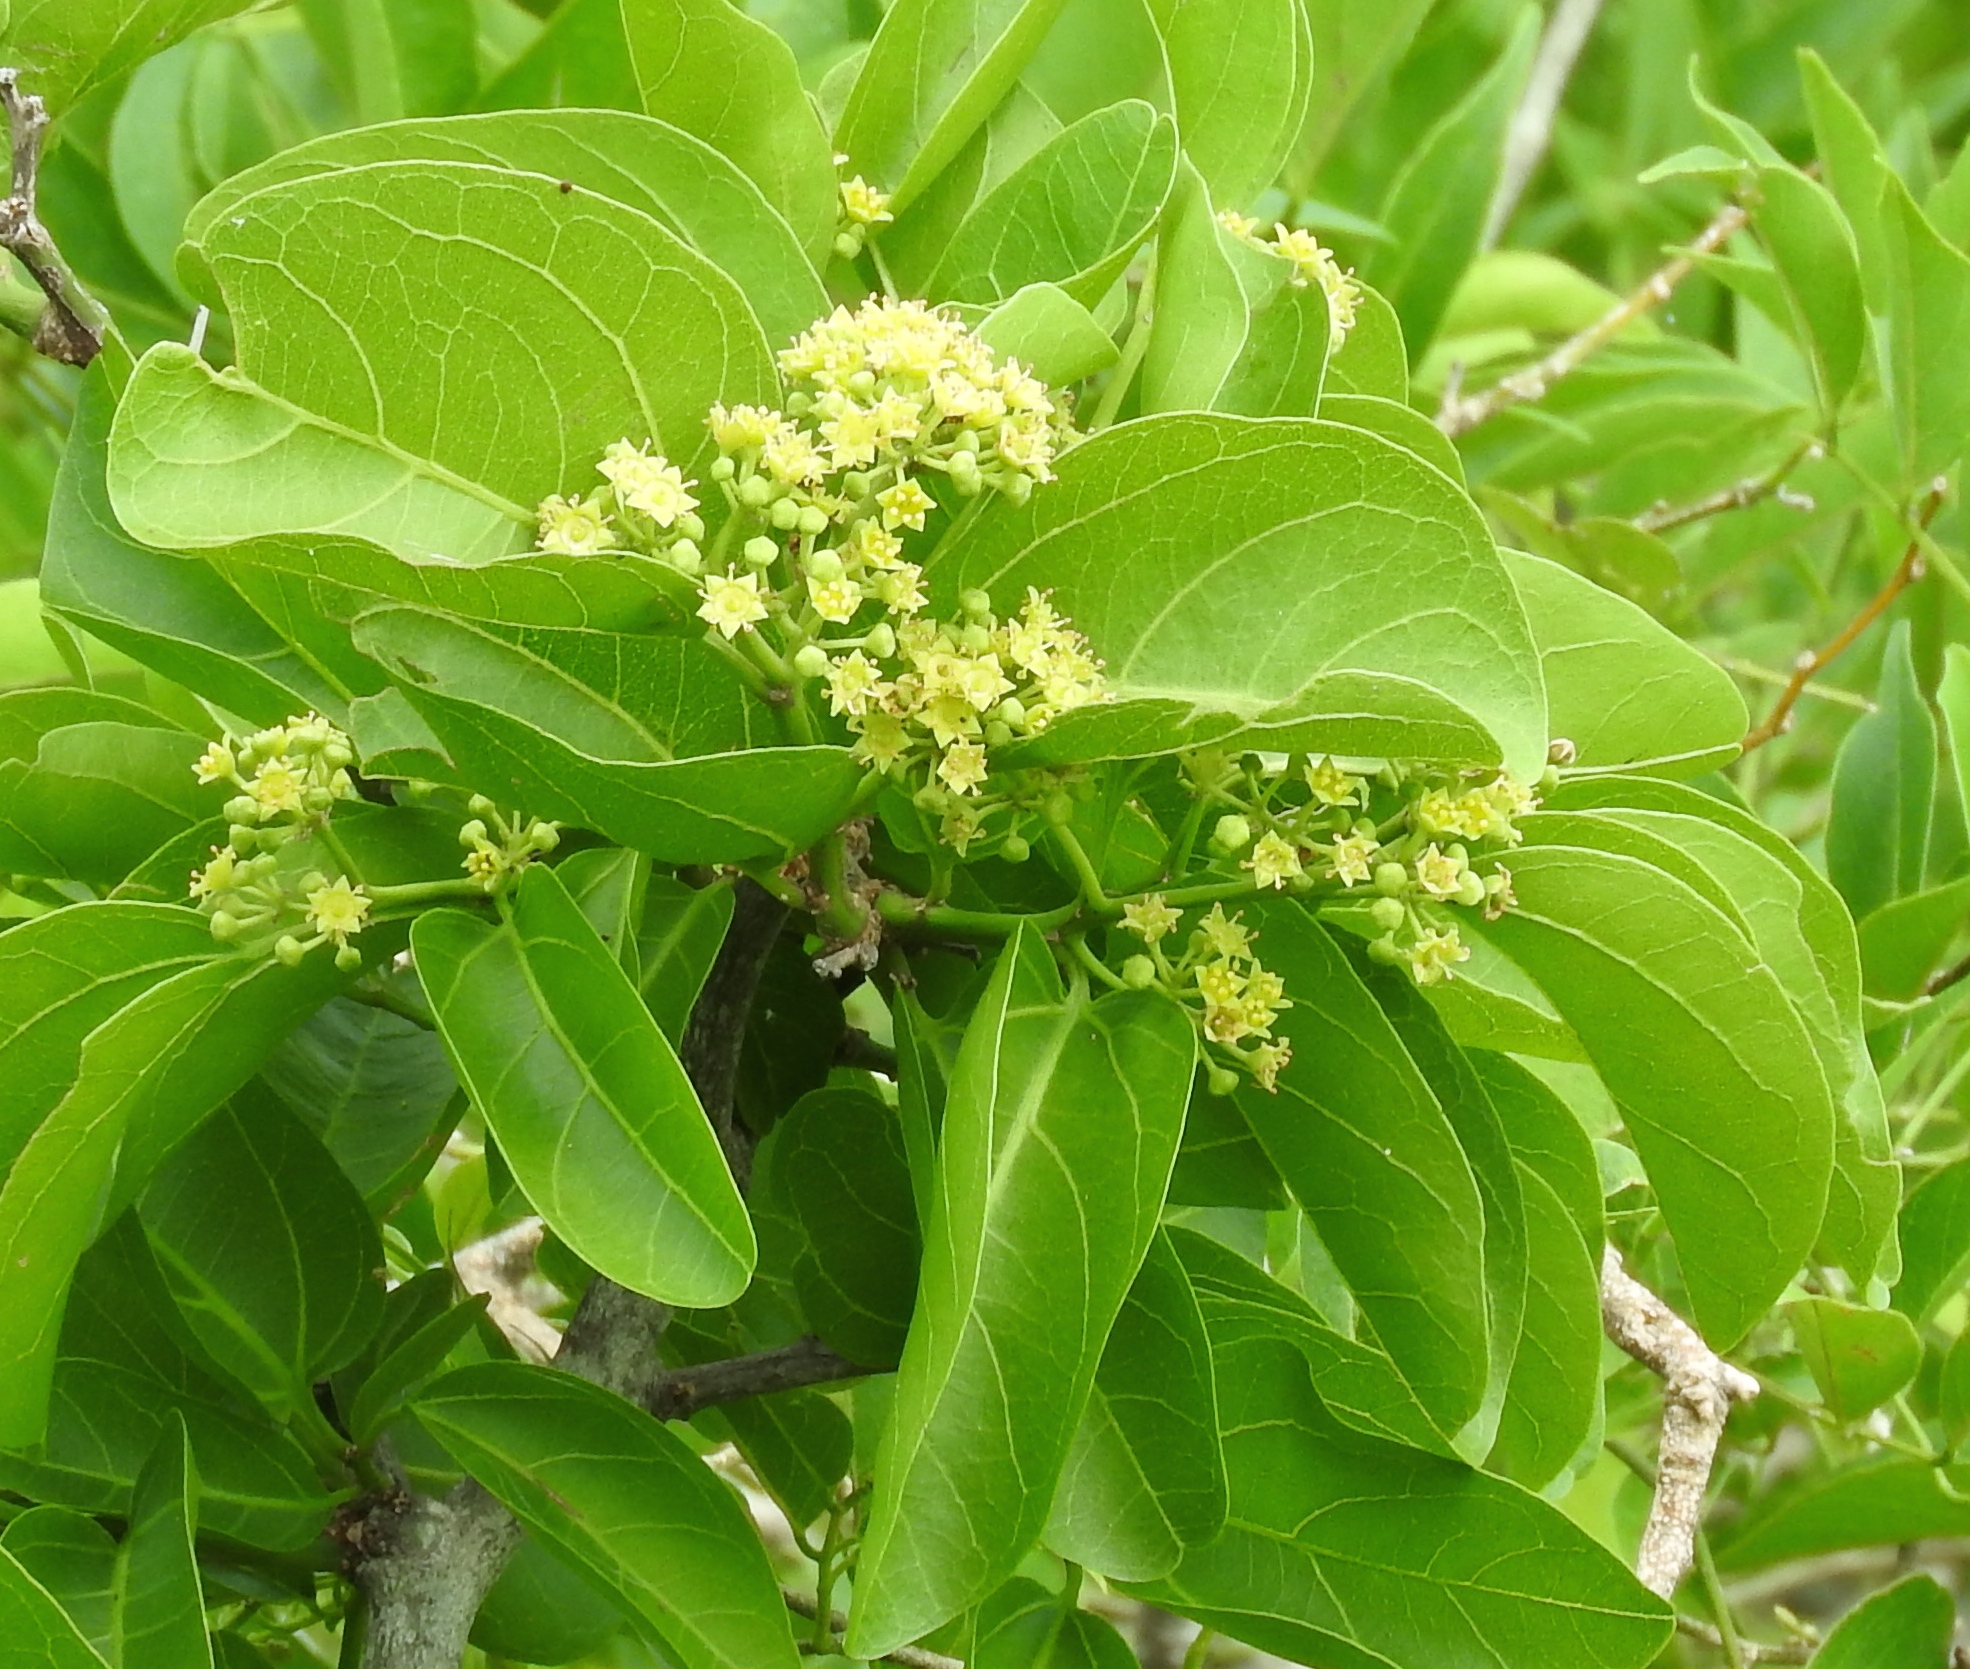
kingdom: Plantae
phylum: Tracheophyta
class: Magnoliopsida
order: Rosales
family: Rhamnaceae
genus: Sarcomphalus
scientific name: Sarcomphalus amole
